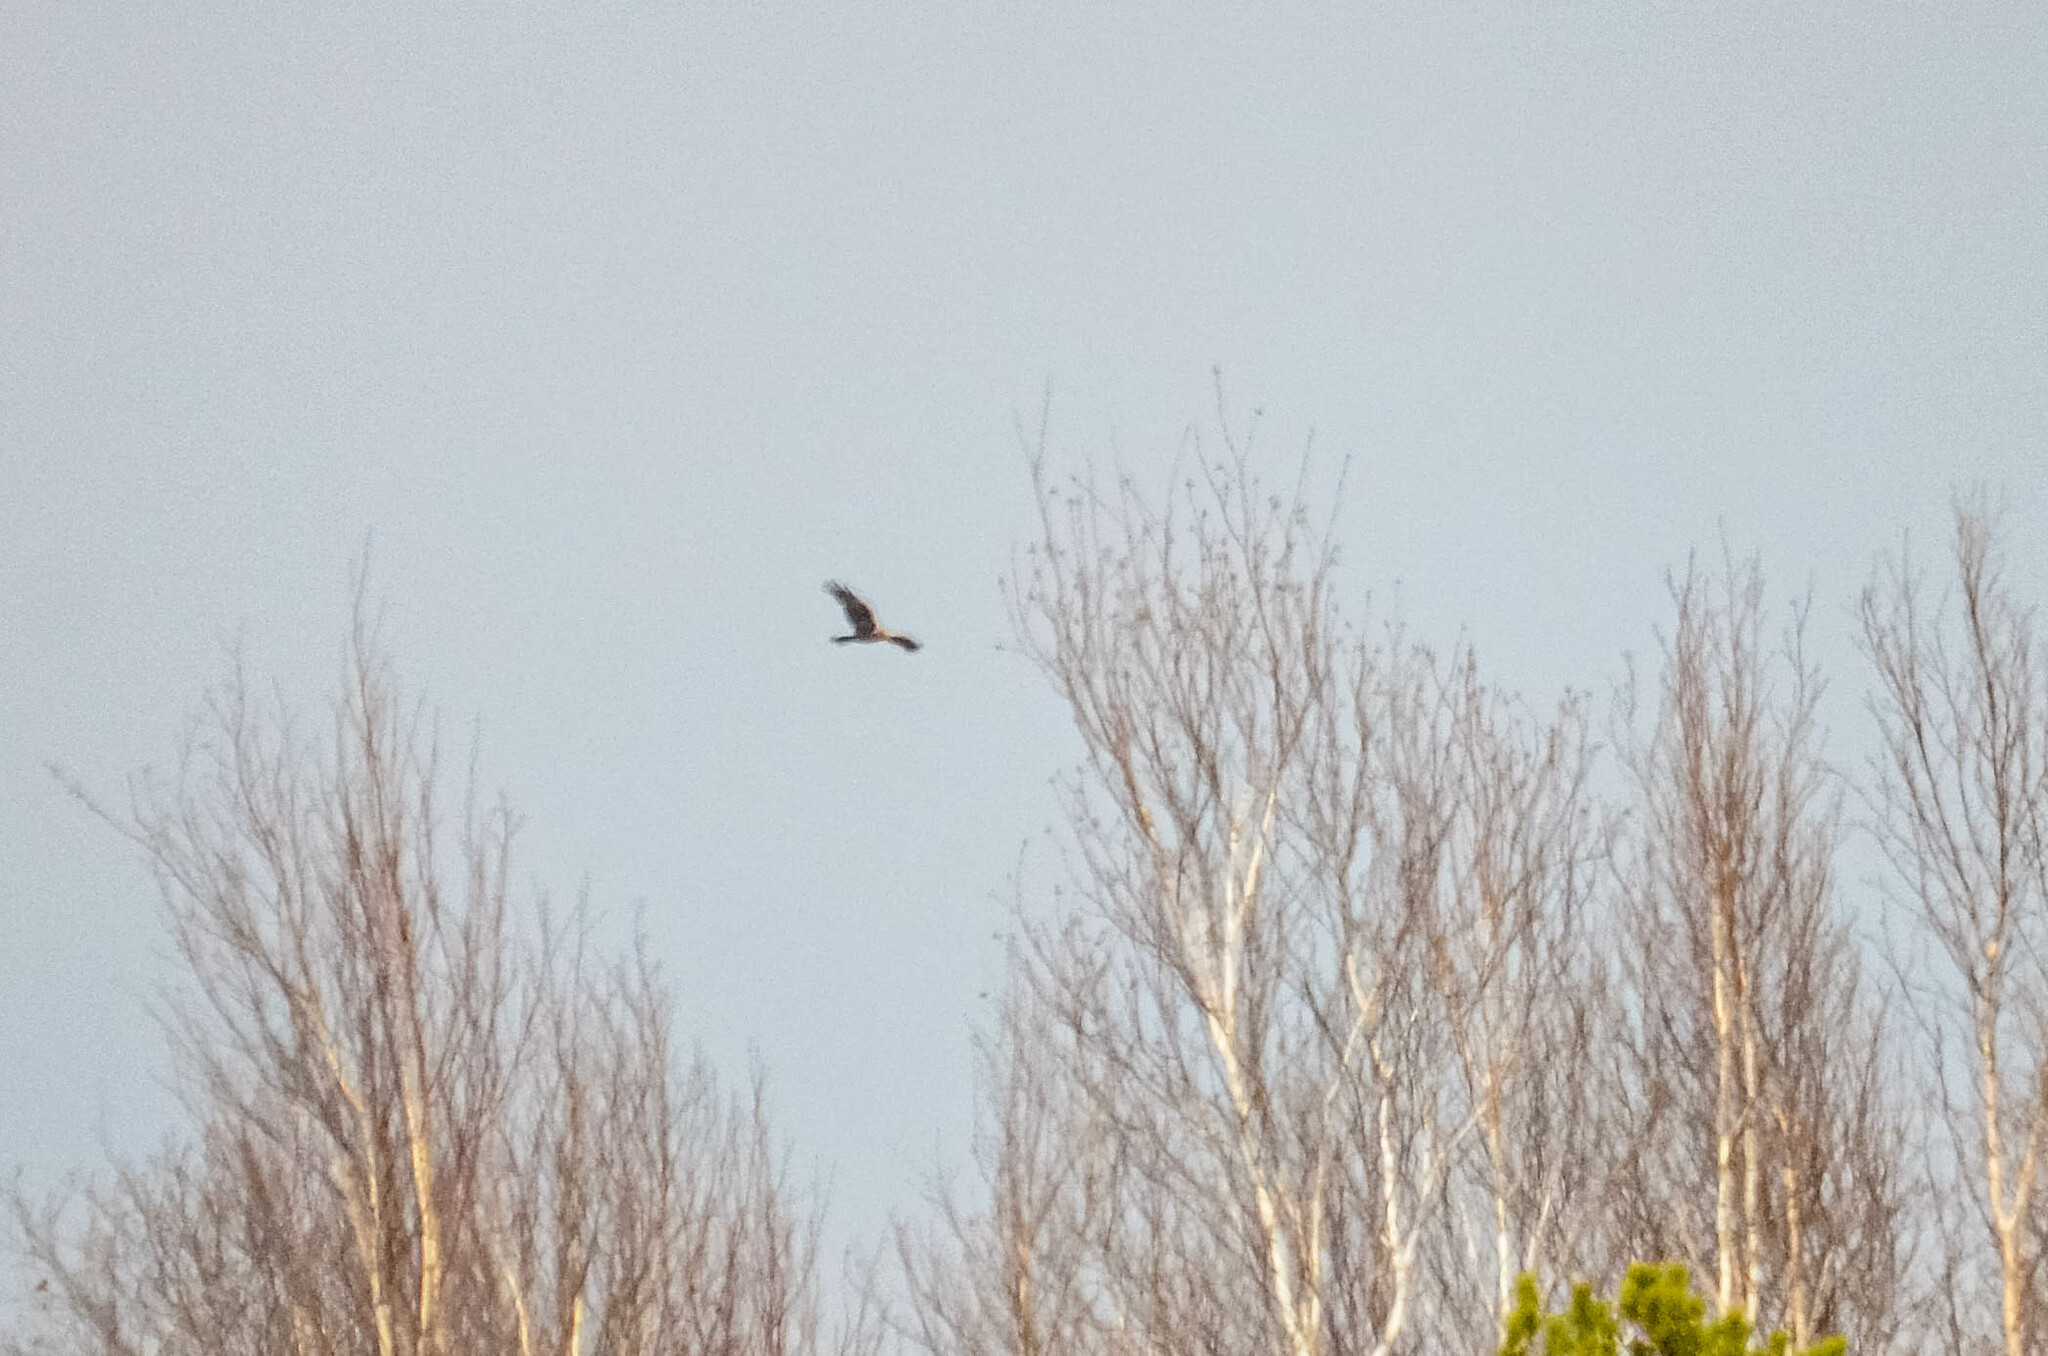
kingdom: Animalia
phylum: Chordata
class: Aves
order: Accipitriformes
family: Accipitridae
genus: Circus
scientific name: Circus aeruginosus
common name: Western marsh harrier
